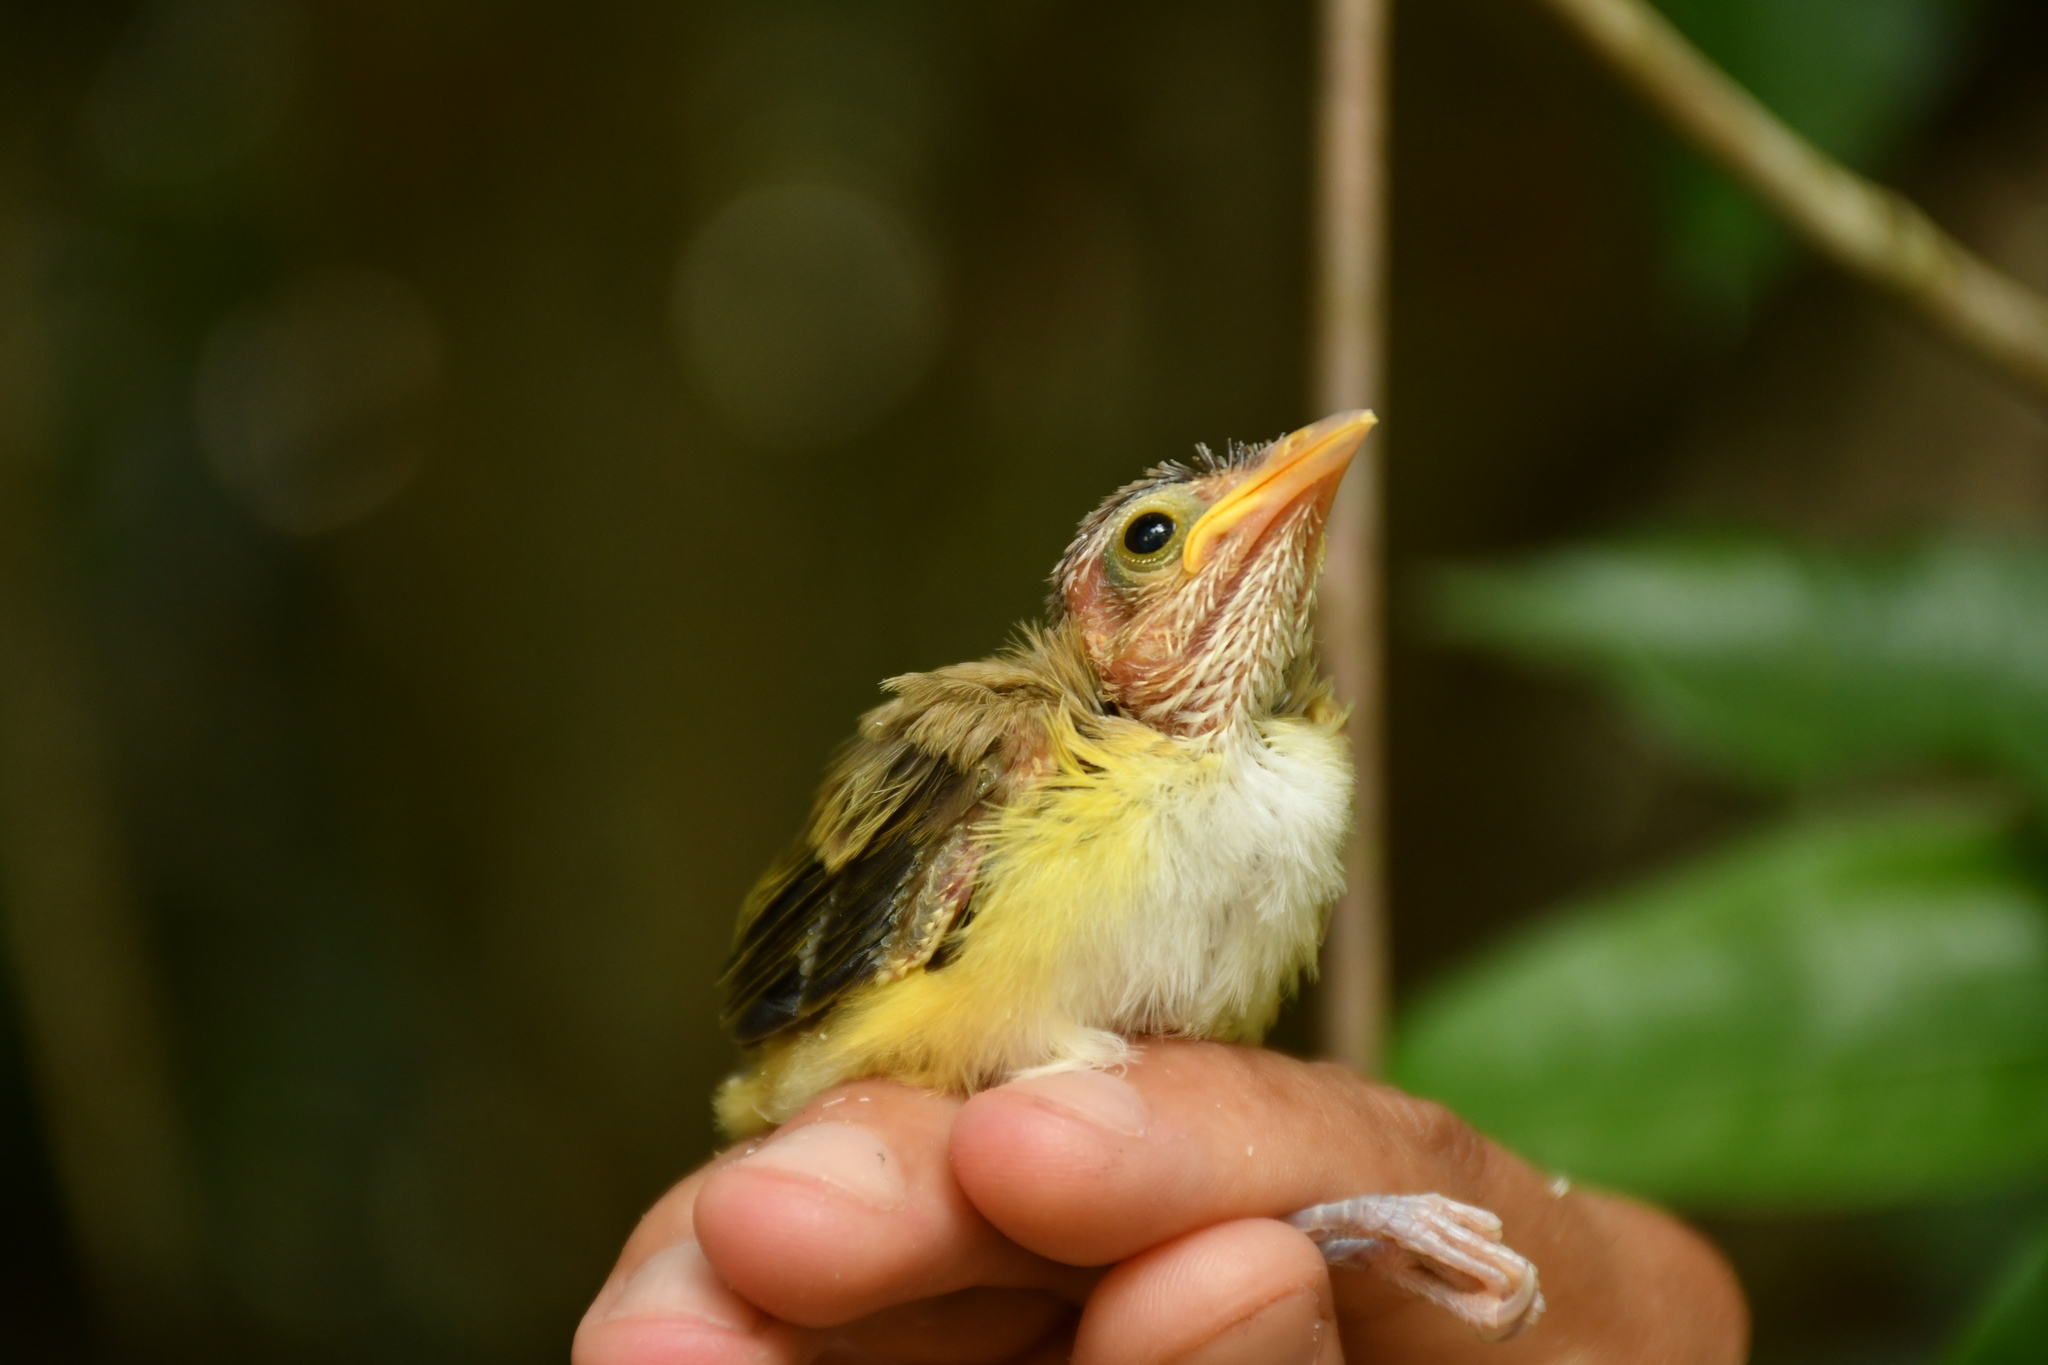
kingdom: Animalia
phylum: Chordata
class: Aves
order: Passeriformes
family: Vireonidae
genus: Vireo
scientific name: Vireo flavoviridis
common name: Yellow-green vireo
